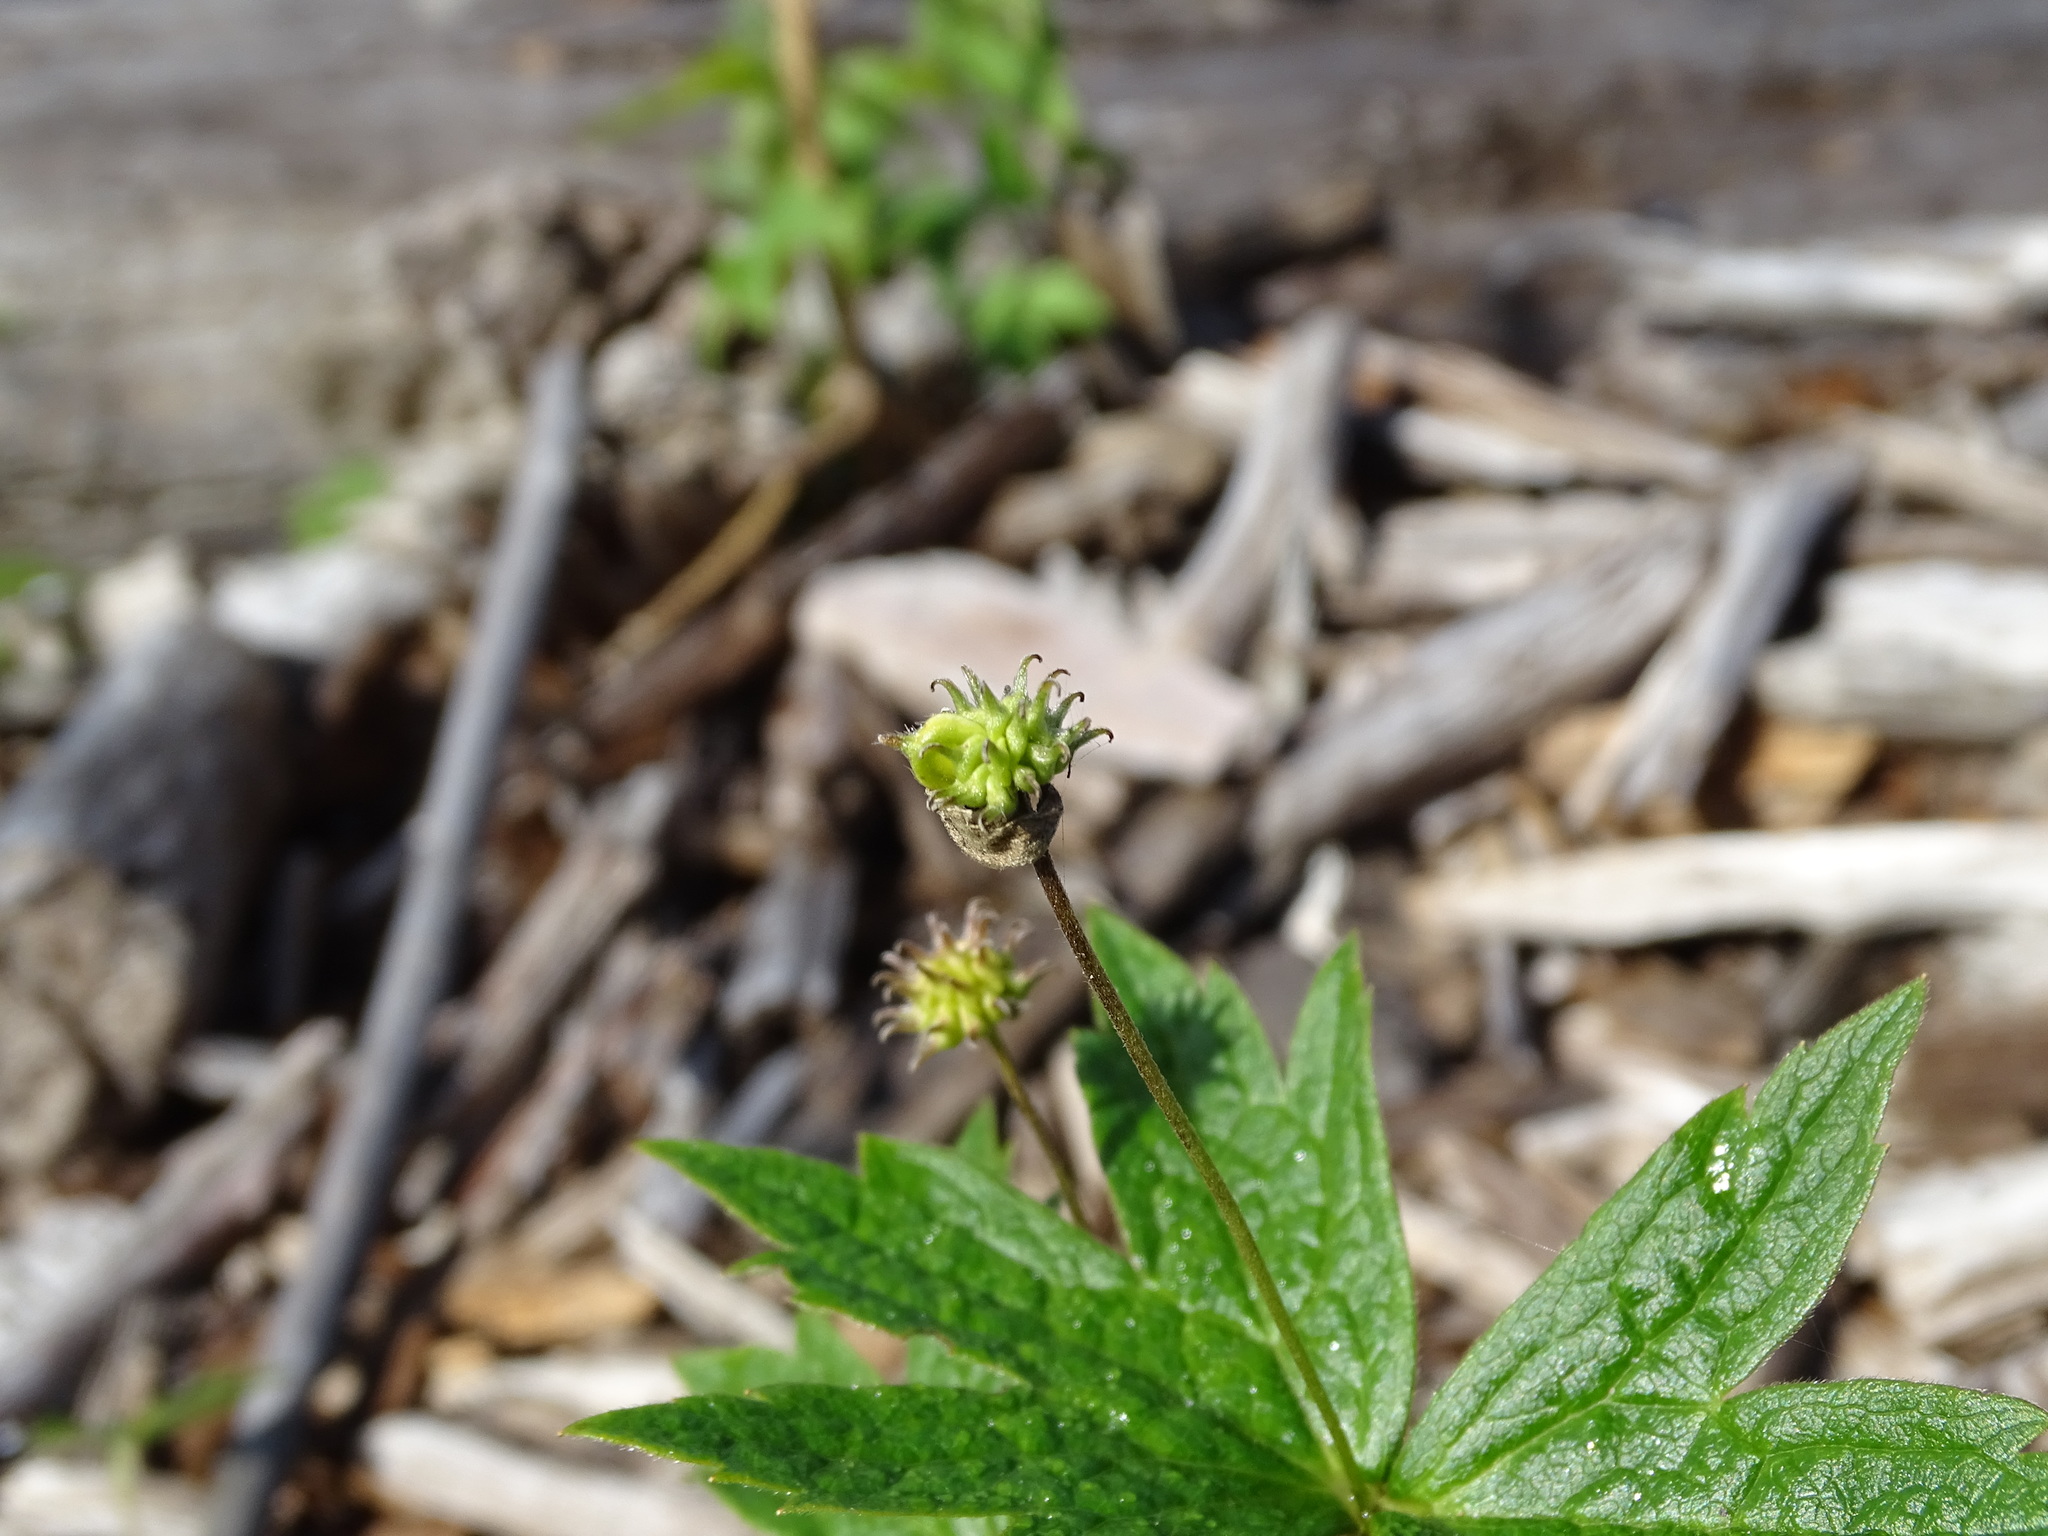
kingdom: Plantae
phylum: Tracheophyta
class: Magnoliopsida
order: Ranunculales
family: Ranunculaceae
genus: Anemonastrum
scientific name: Anemonastrum canadense
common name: Canada anemone
